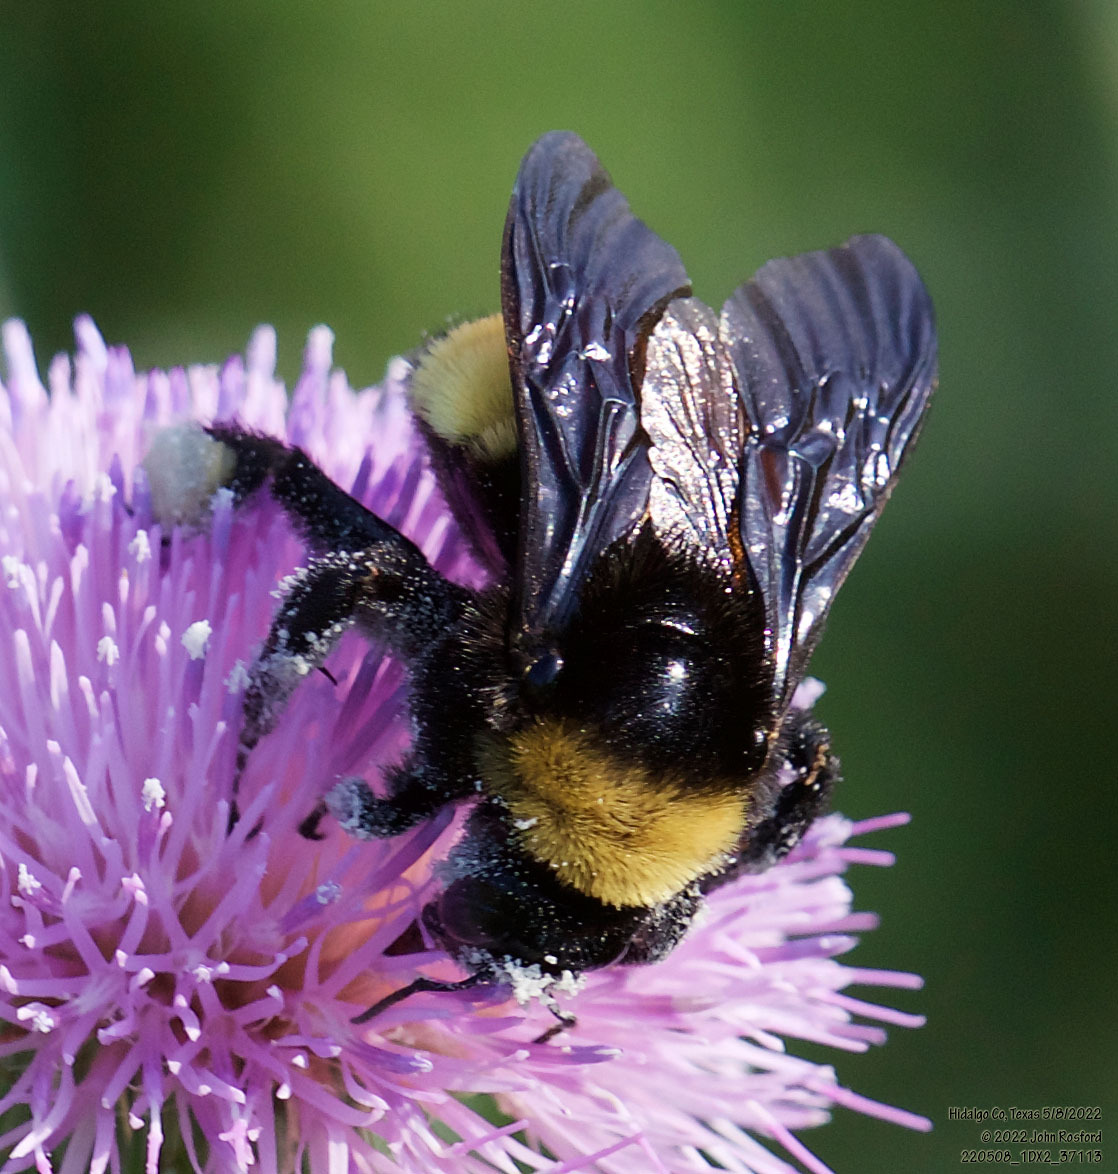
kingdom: Animalia
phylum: Arthropoda
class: Insecta
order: Hymenoptera
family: Apidae
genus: Bombus
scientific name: Bombus pensylvanicus
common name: Bumble bee
